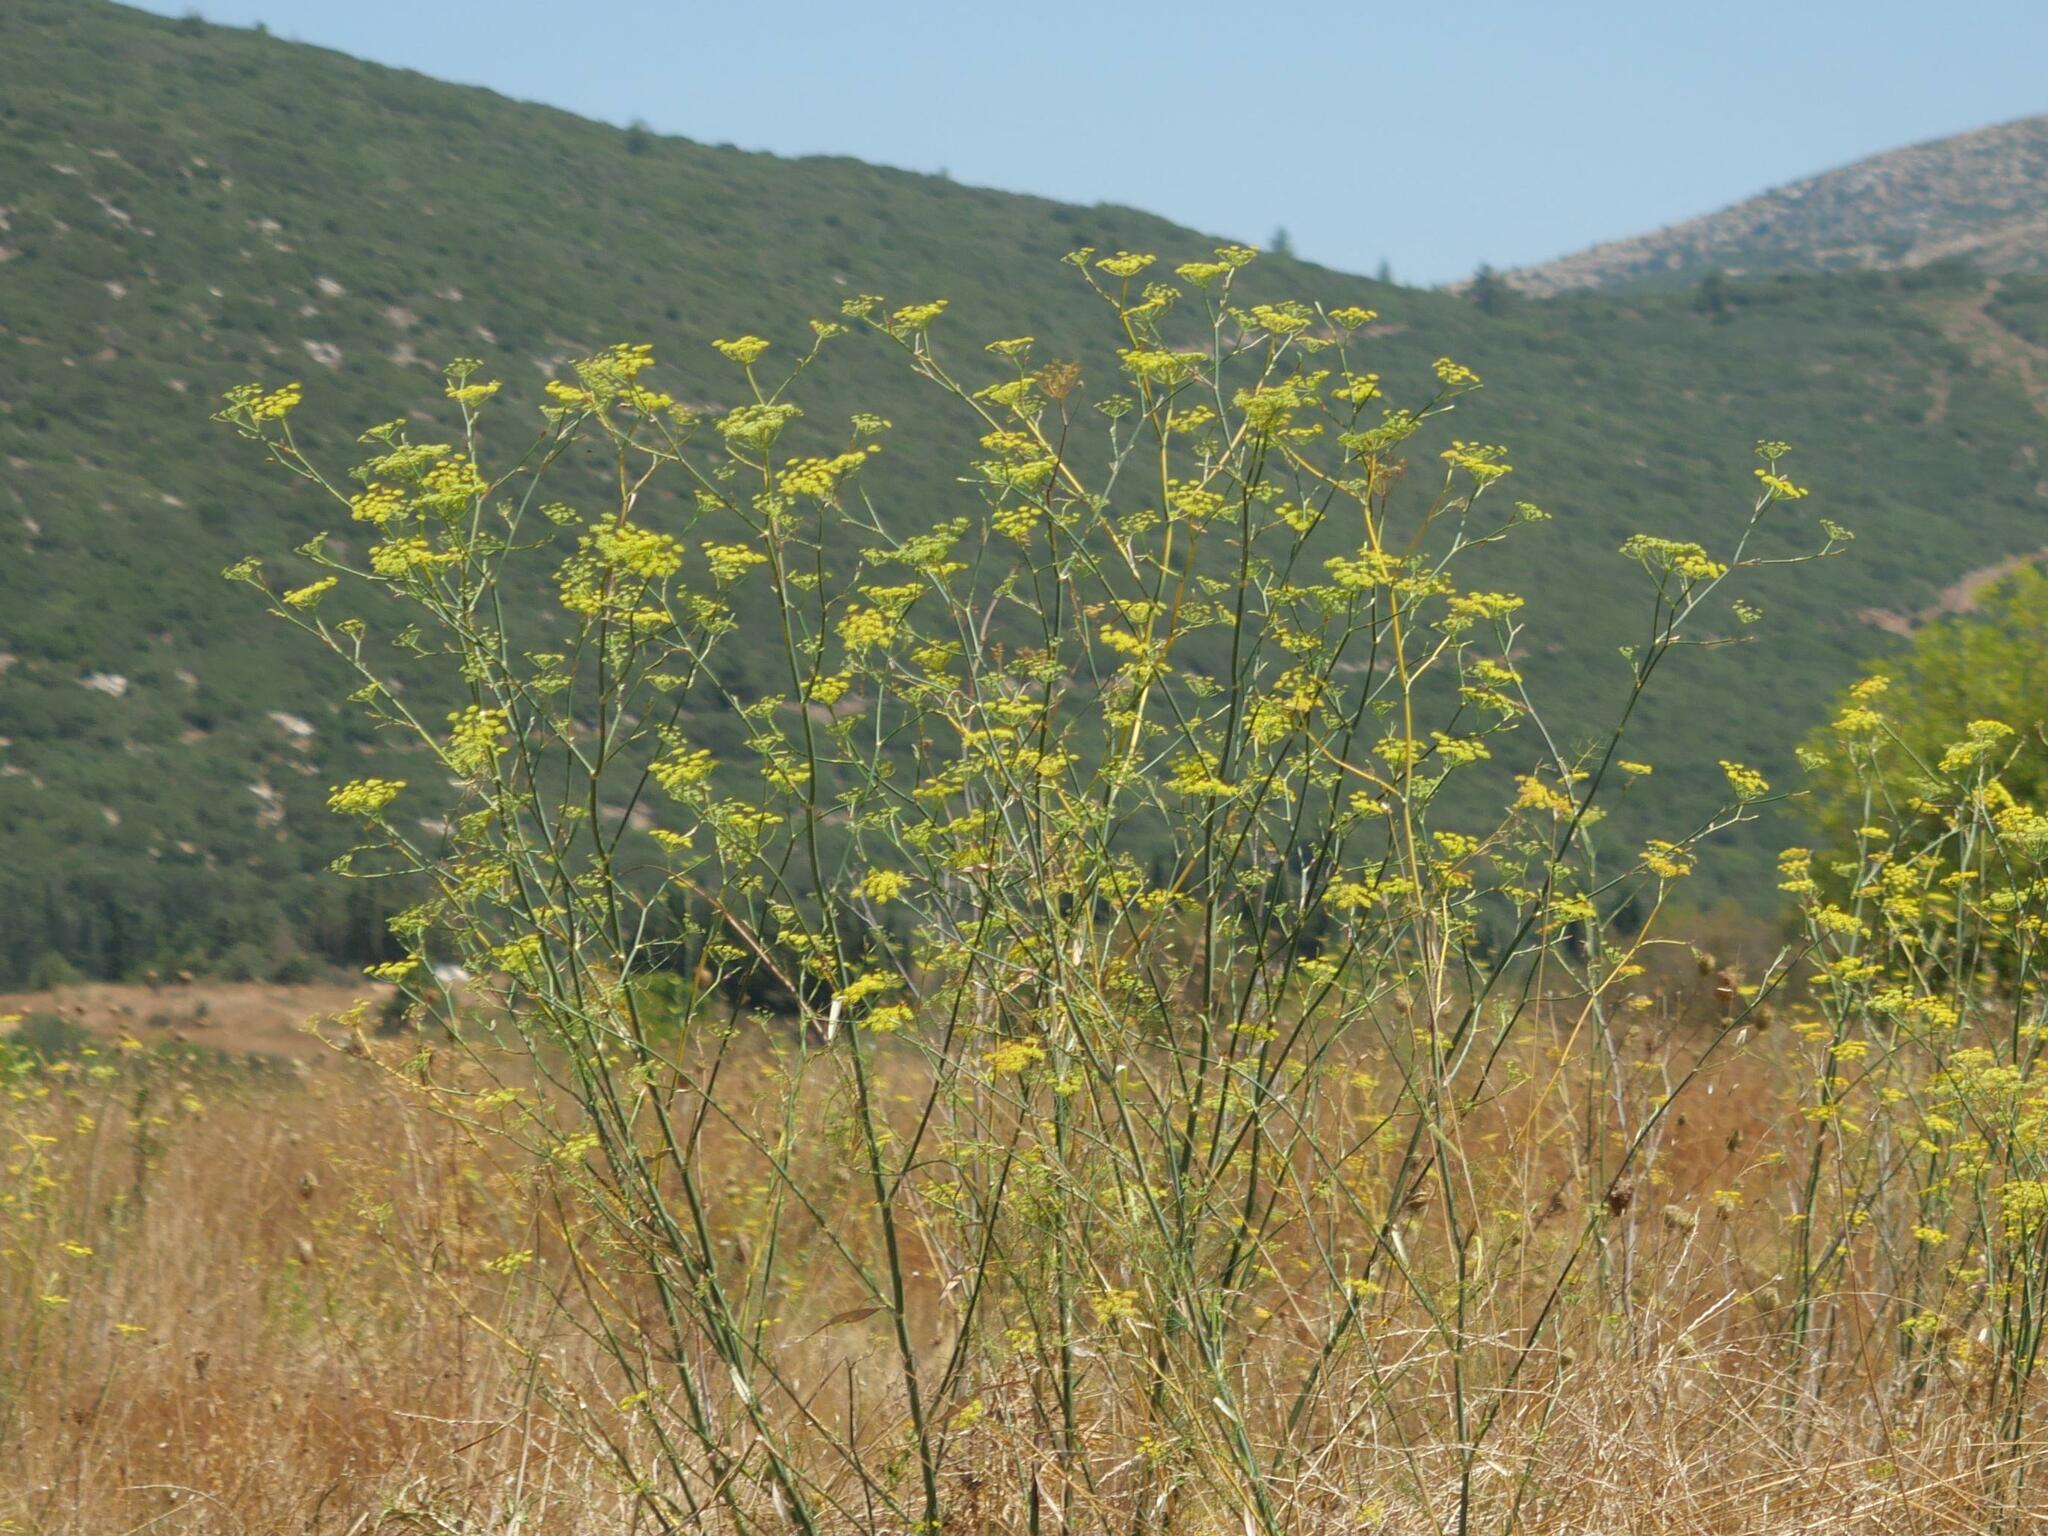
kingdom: Plantae
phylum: Tracheophyta
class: Magnoliopsida
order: Apiales
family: Apiaceae
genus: Foeniculum
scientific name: Foeniculum vulgare
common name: Fennel
